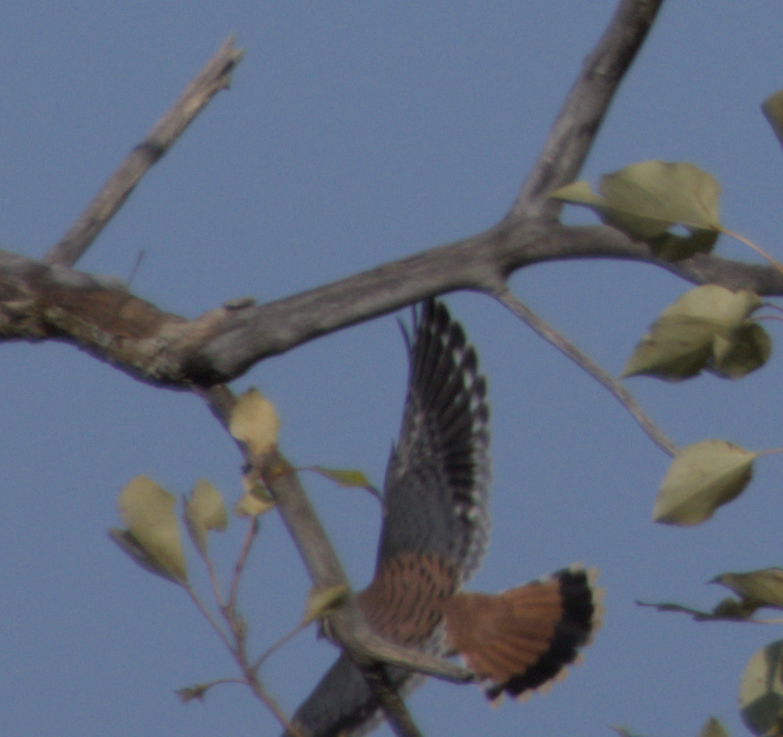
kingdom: Animalia
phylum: Chordata
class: Aves
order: Falconiformes
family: Falconidae
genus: Falco
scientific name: Falco sparverius
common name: American kestrel
